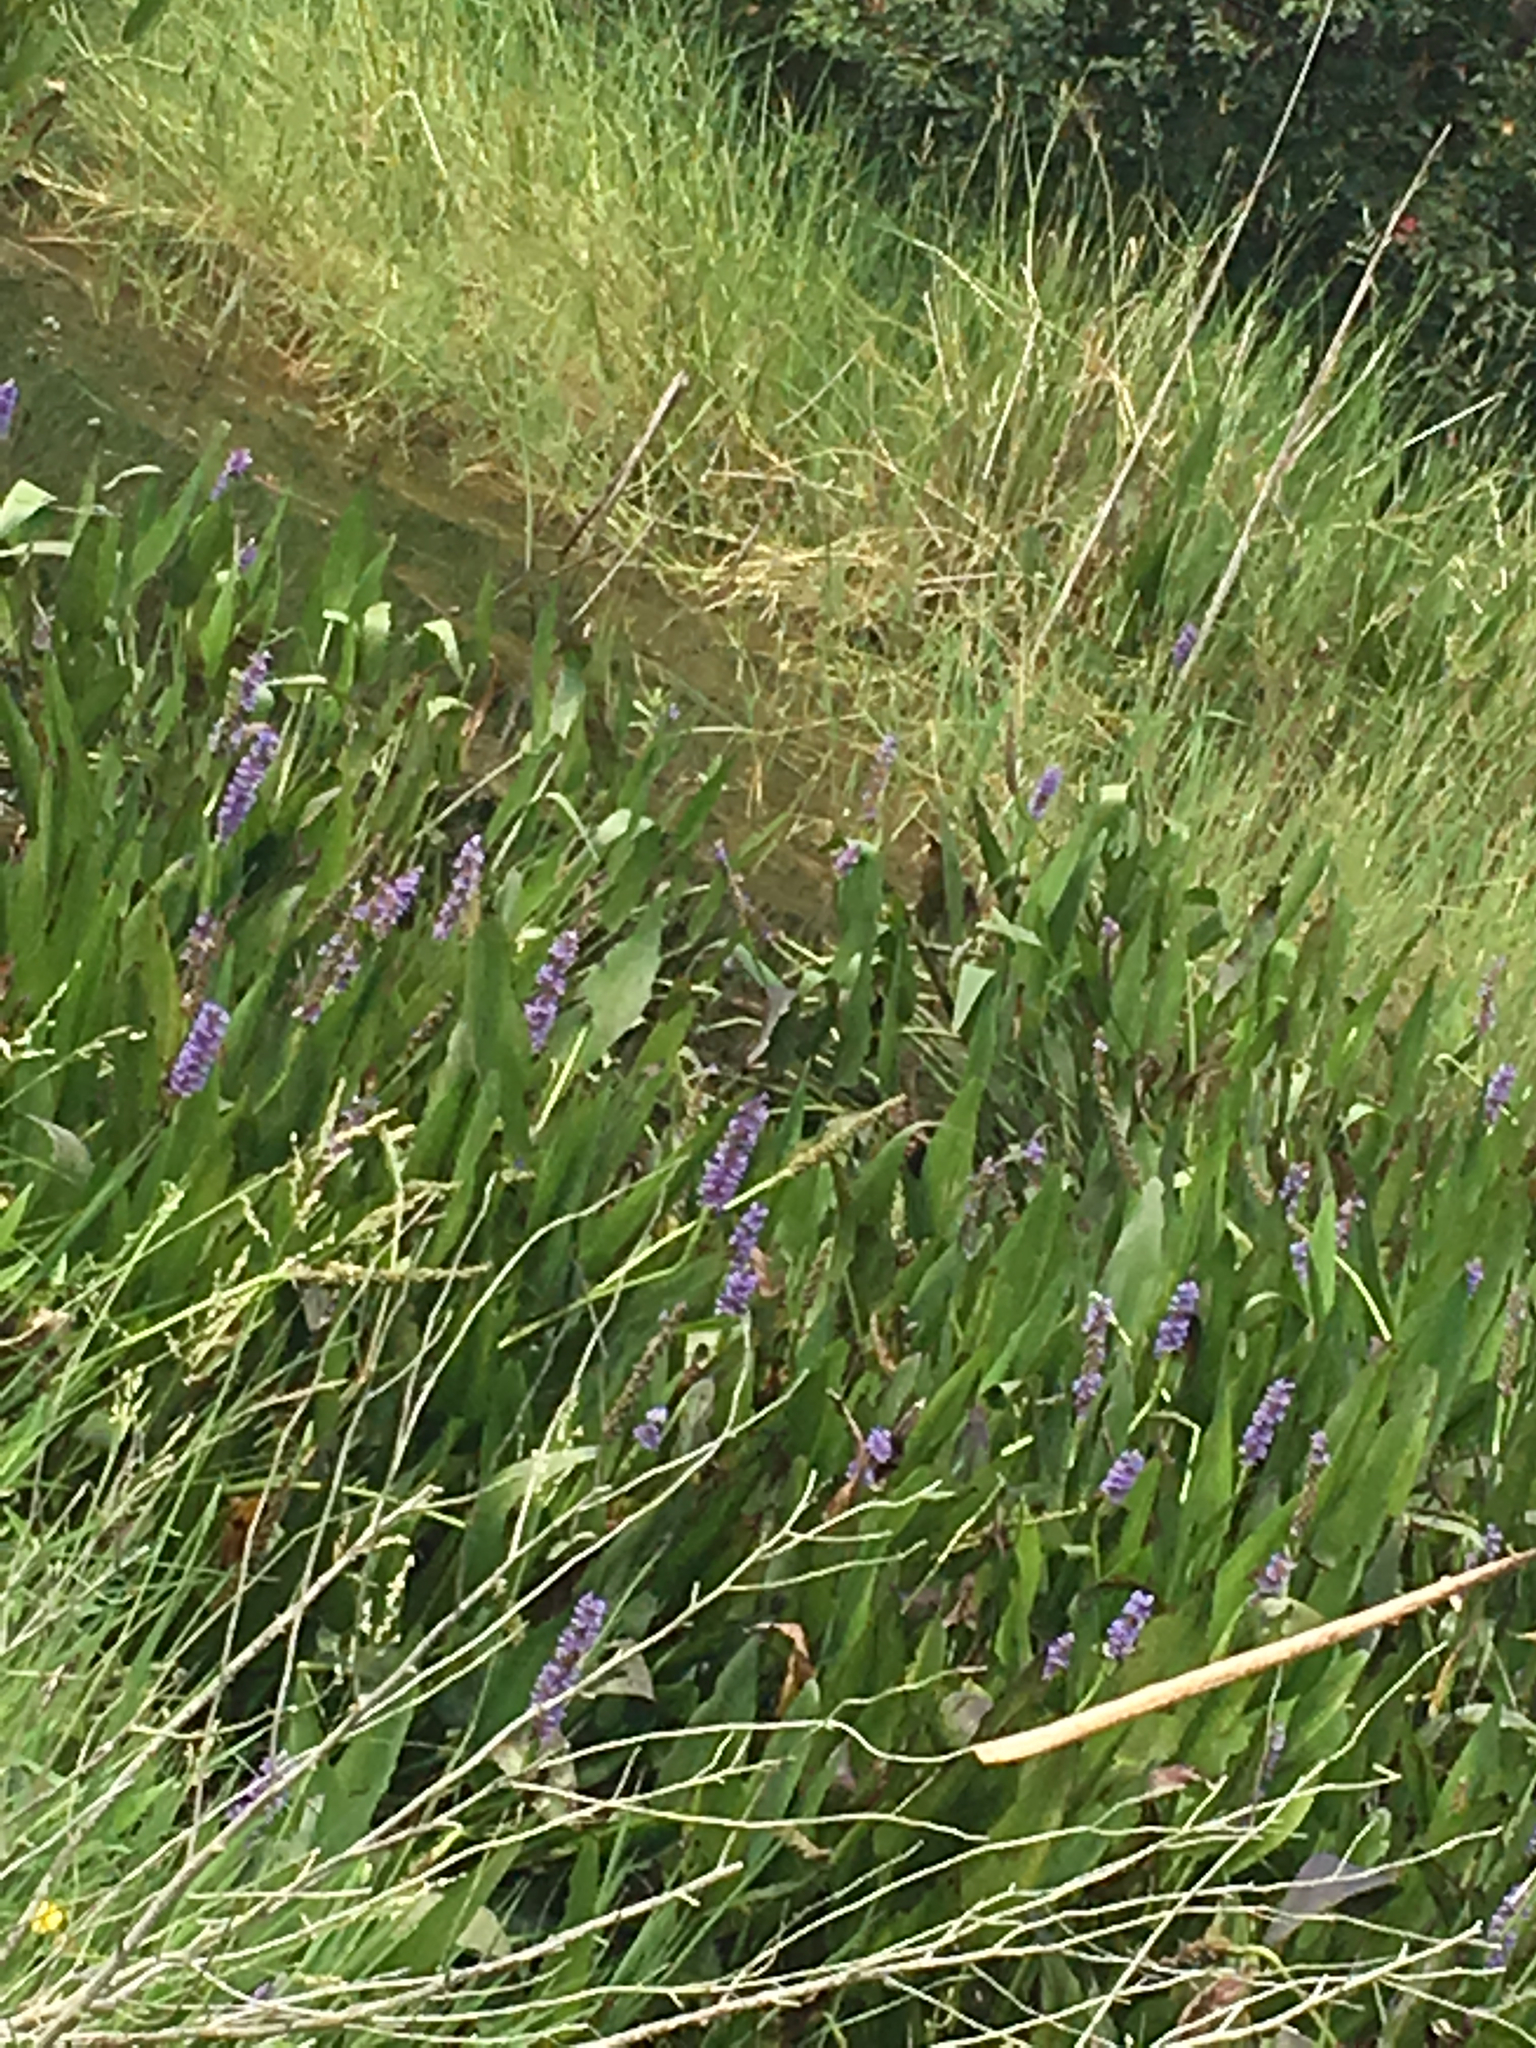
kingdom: Plantae
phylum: Tracheophyta
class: Liliopsida
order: Commelinales
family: Pontederiaceae
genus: Pontederia
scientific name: Pontederia cordata
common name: Pickerelweed
